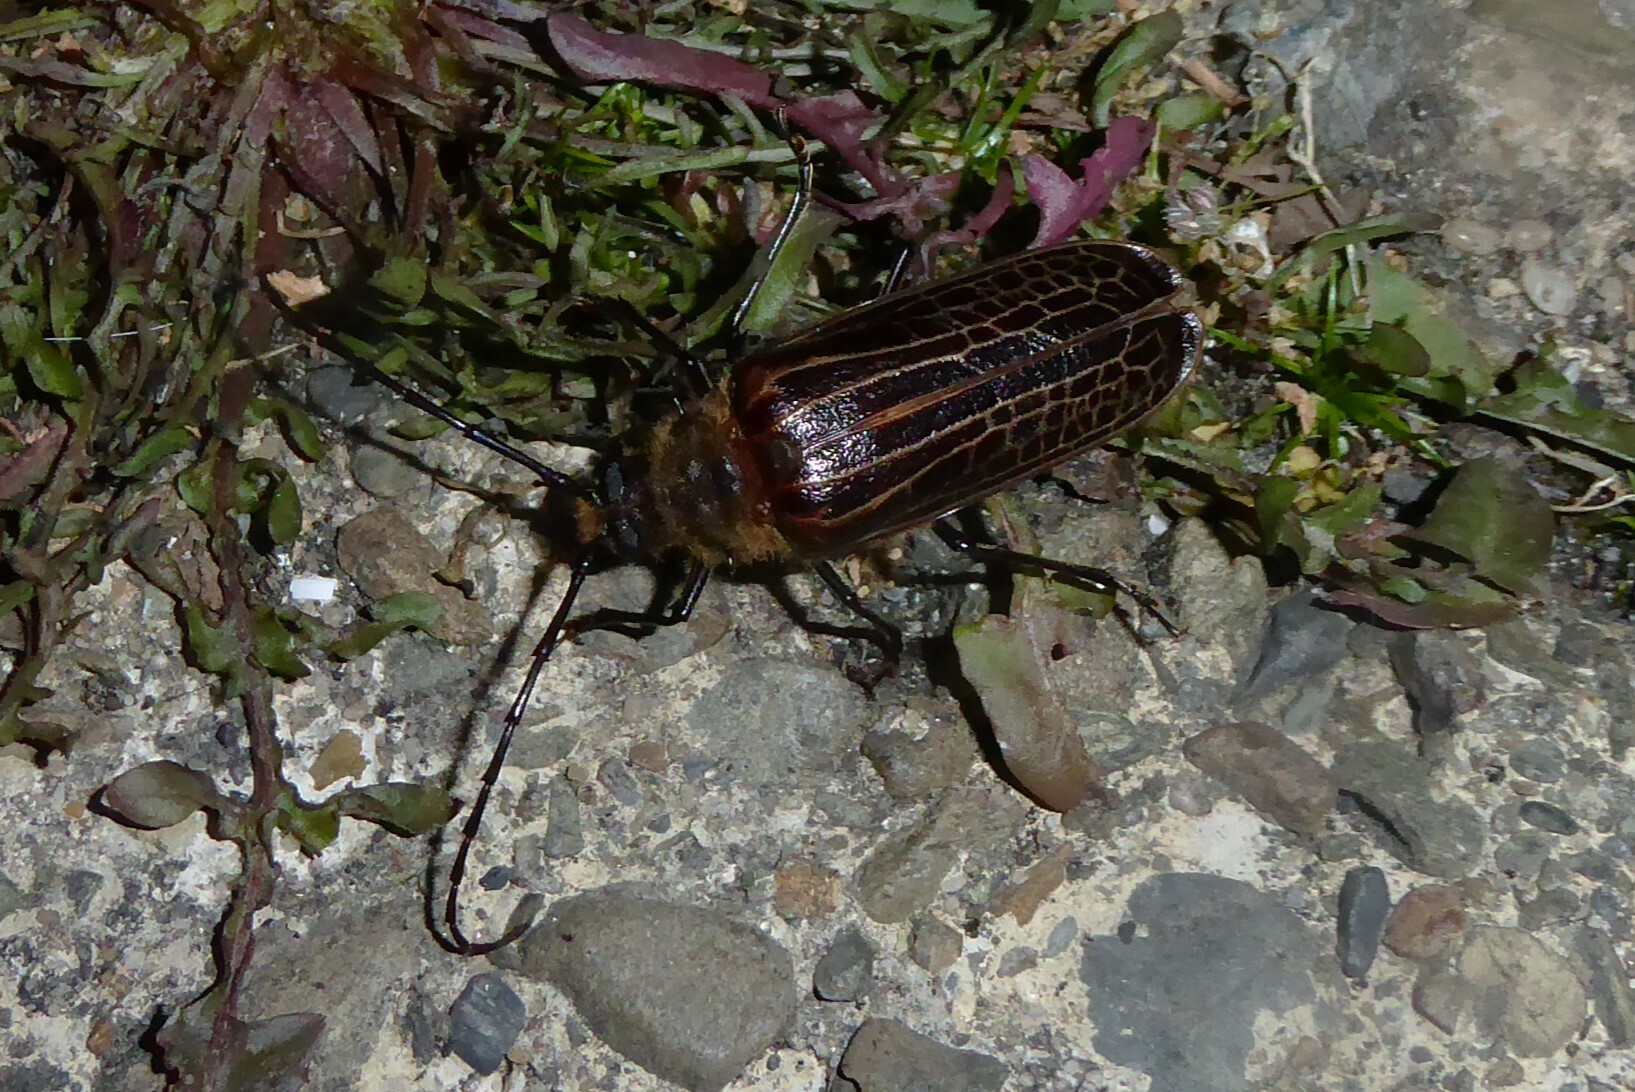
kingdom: Animalia
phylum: Arthropoda
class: Insecta
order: Coleoptera
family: Cerambycidae
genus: Prionoplus
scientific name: Prionoplus reticularis
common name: Huhu beetle
